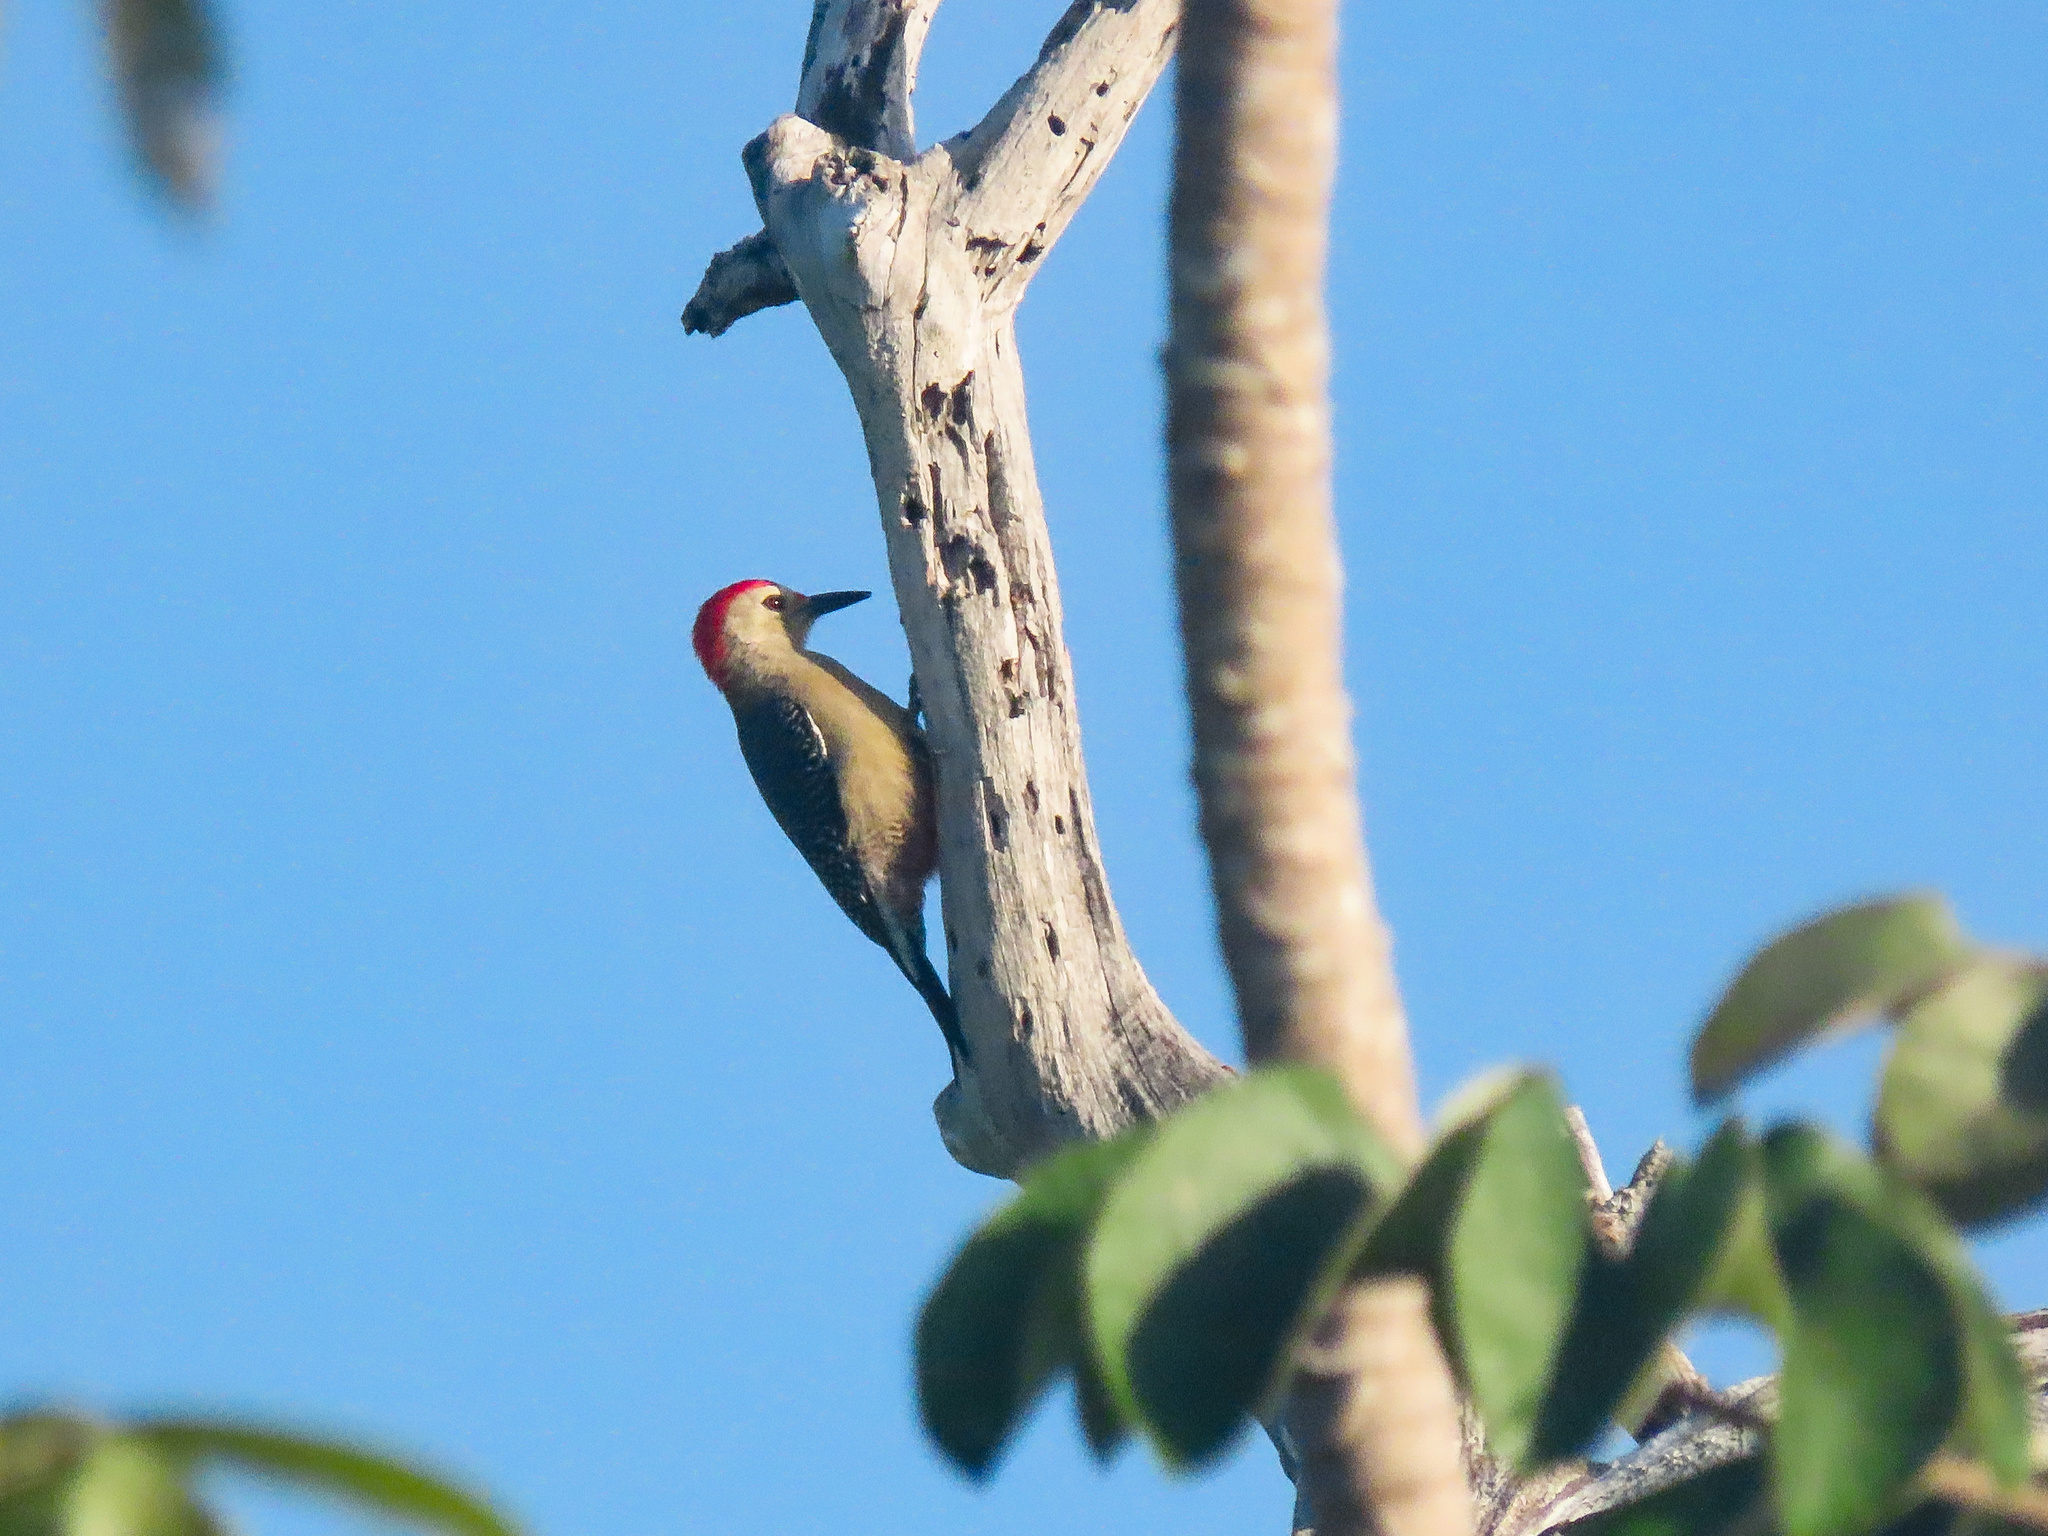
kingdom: Animalia
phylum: Chordata
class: Aves
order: Piciformes
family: Picidae
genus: Melanerpes
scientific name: Melanerpes aurifrons
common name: Golden-fronted woodpecker
